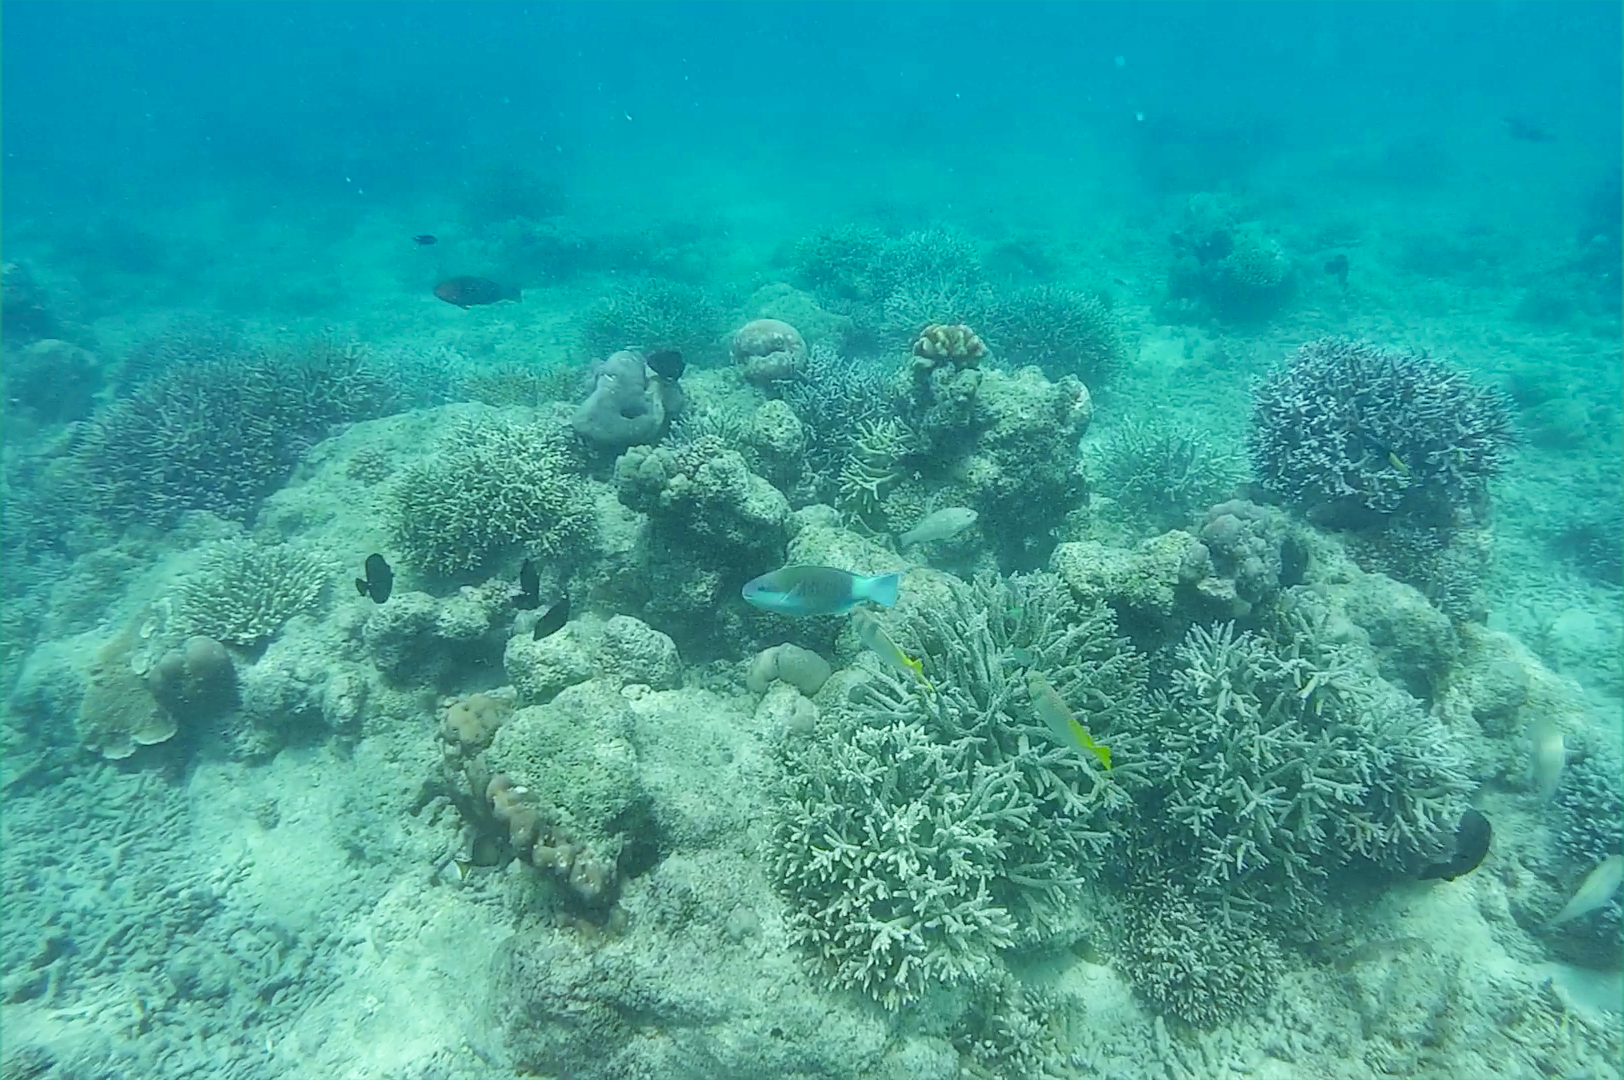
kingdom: Animalia
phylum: Chordata
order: Perciformes
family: Scaridae
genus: Chlorurus
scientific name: Chlorurus sordidus
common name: Bullethead parrotfish
